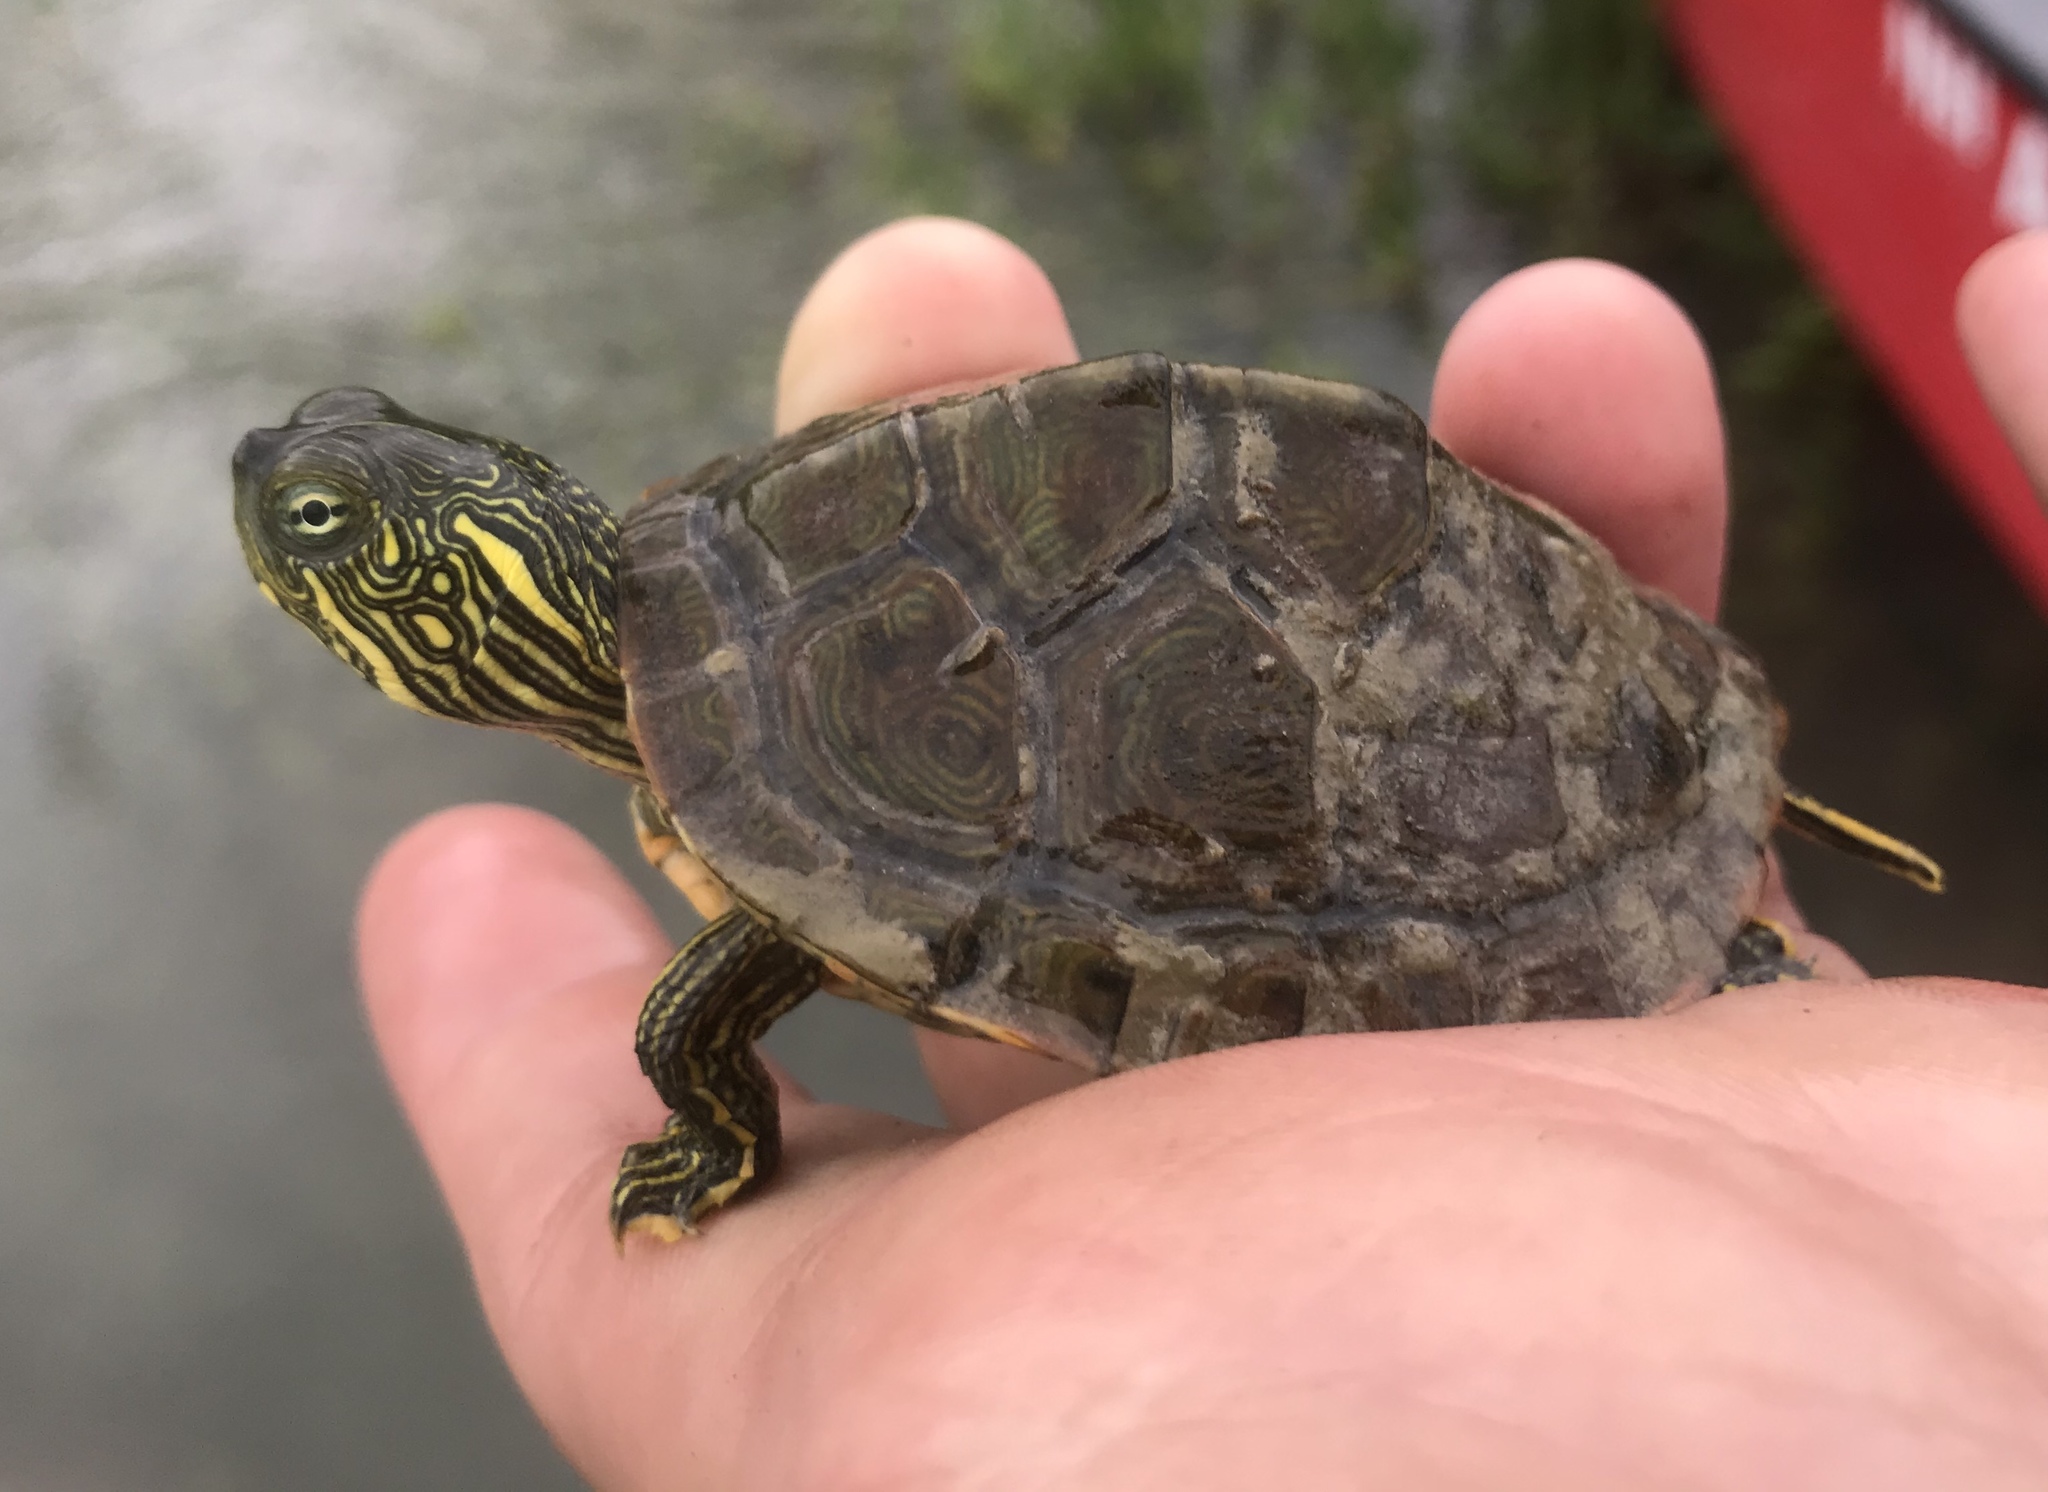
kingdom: Animalia
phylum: Chordata
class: Testudines
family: Emydidae
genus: Pseudemys
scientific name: Pseudemys texana
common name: Texas river cooter
